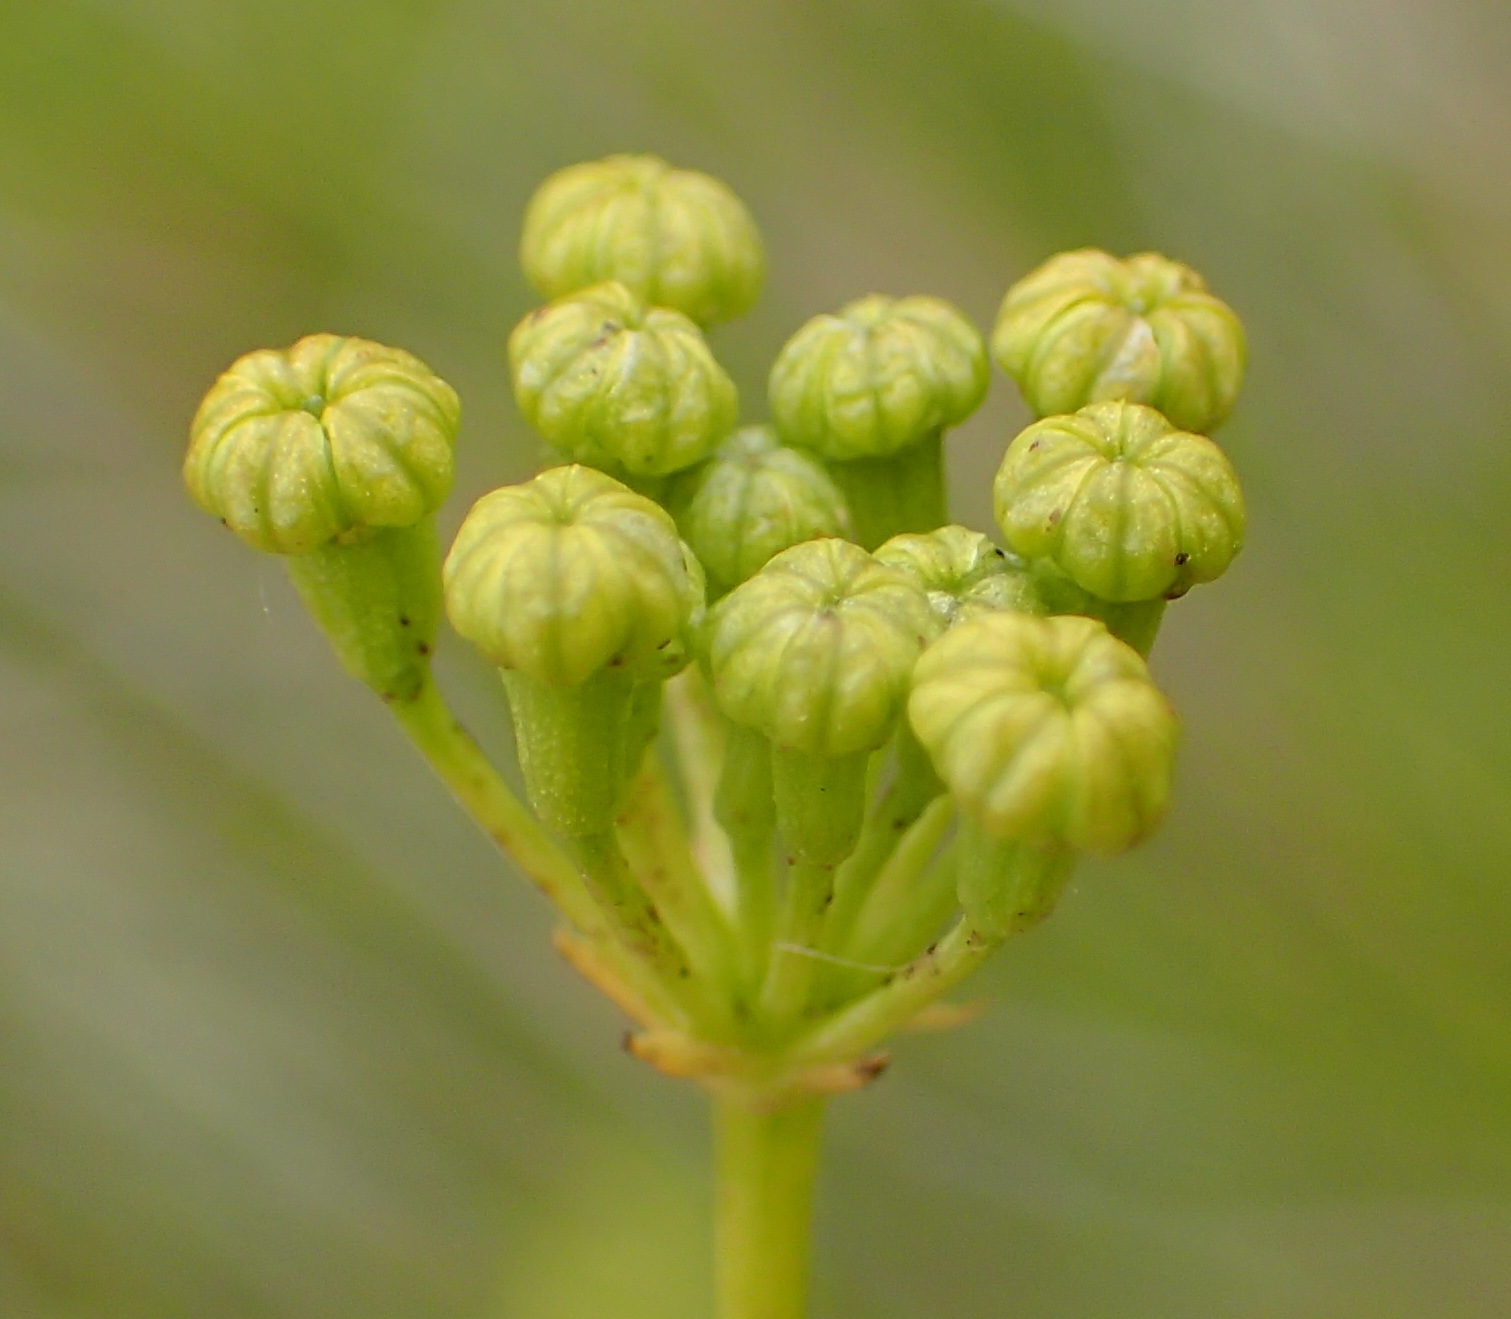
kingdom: Plantae
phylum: Tracheophyta
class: Magnoliopsida
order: Apiales
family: Apiaceae
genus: Anginon
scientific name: Anginon difforme
